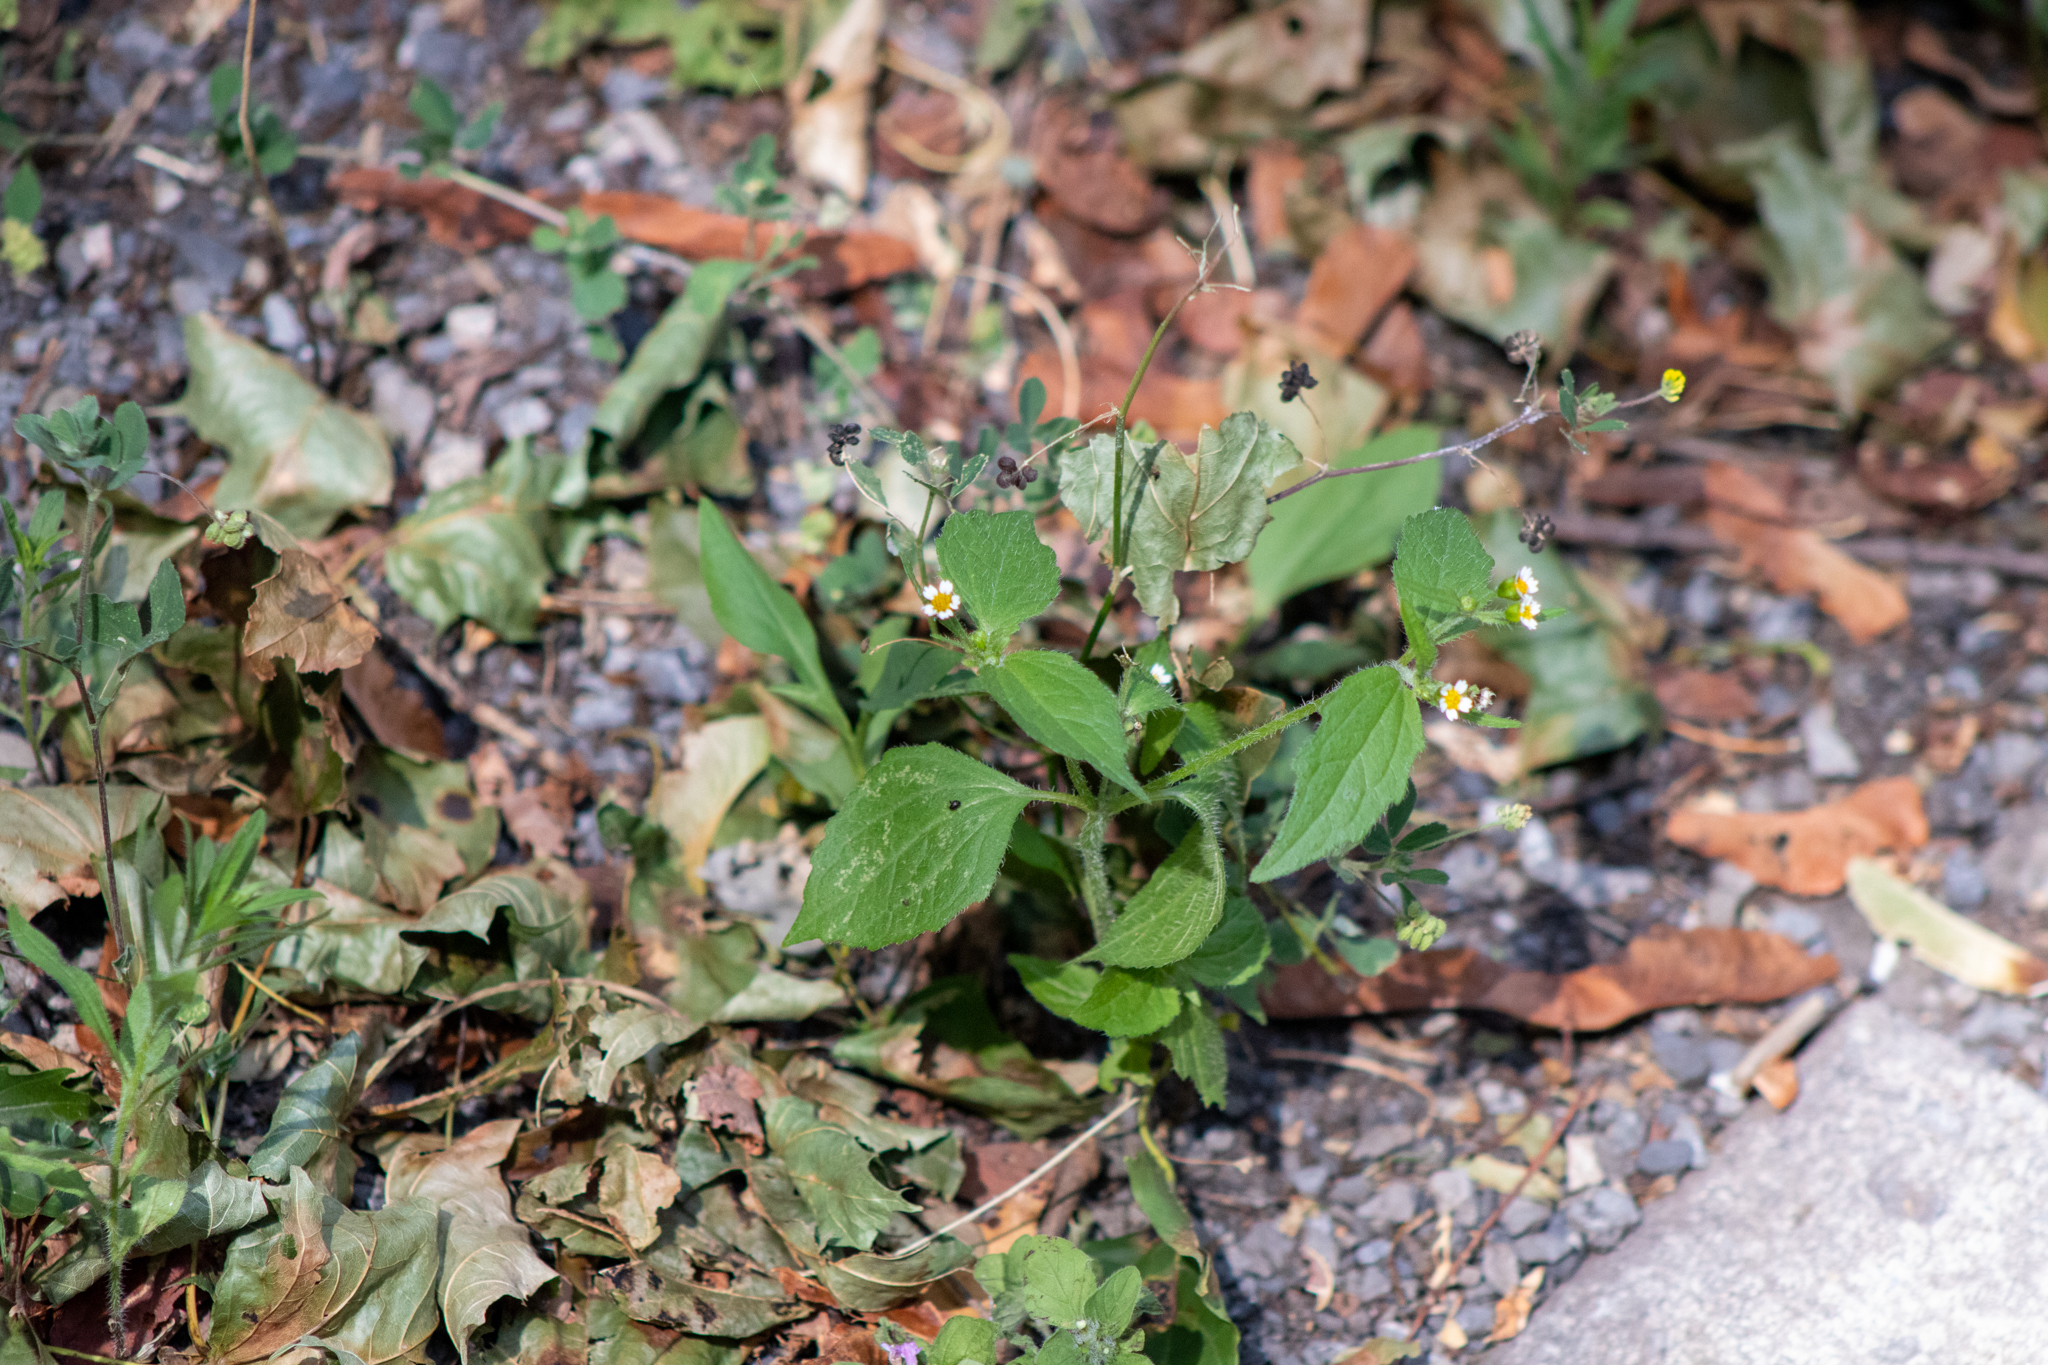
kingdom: Plantae
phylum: Tracheophyta
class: Magnoliopsida
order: Asterales
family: Asteraceae
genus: Galinsoga
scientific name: Galinsoga quadriradiata
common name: Shaggy soldier
